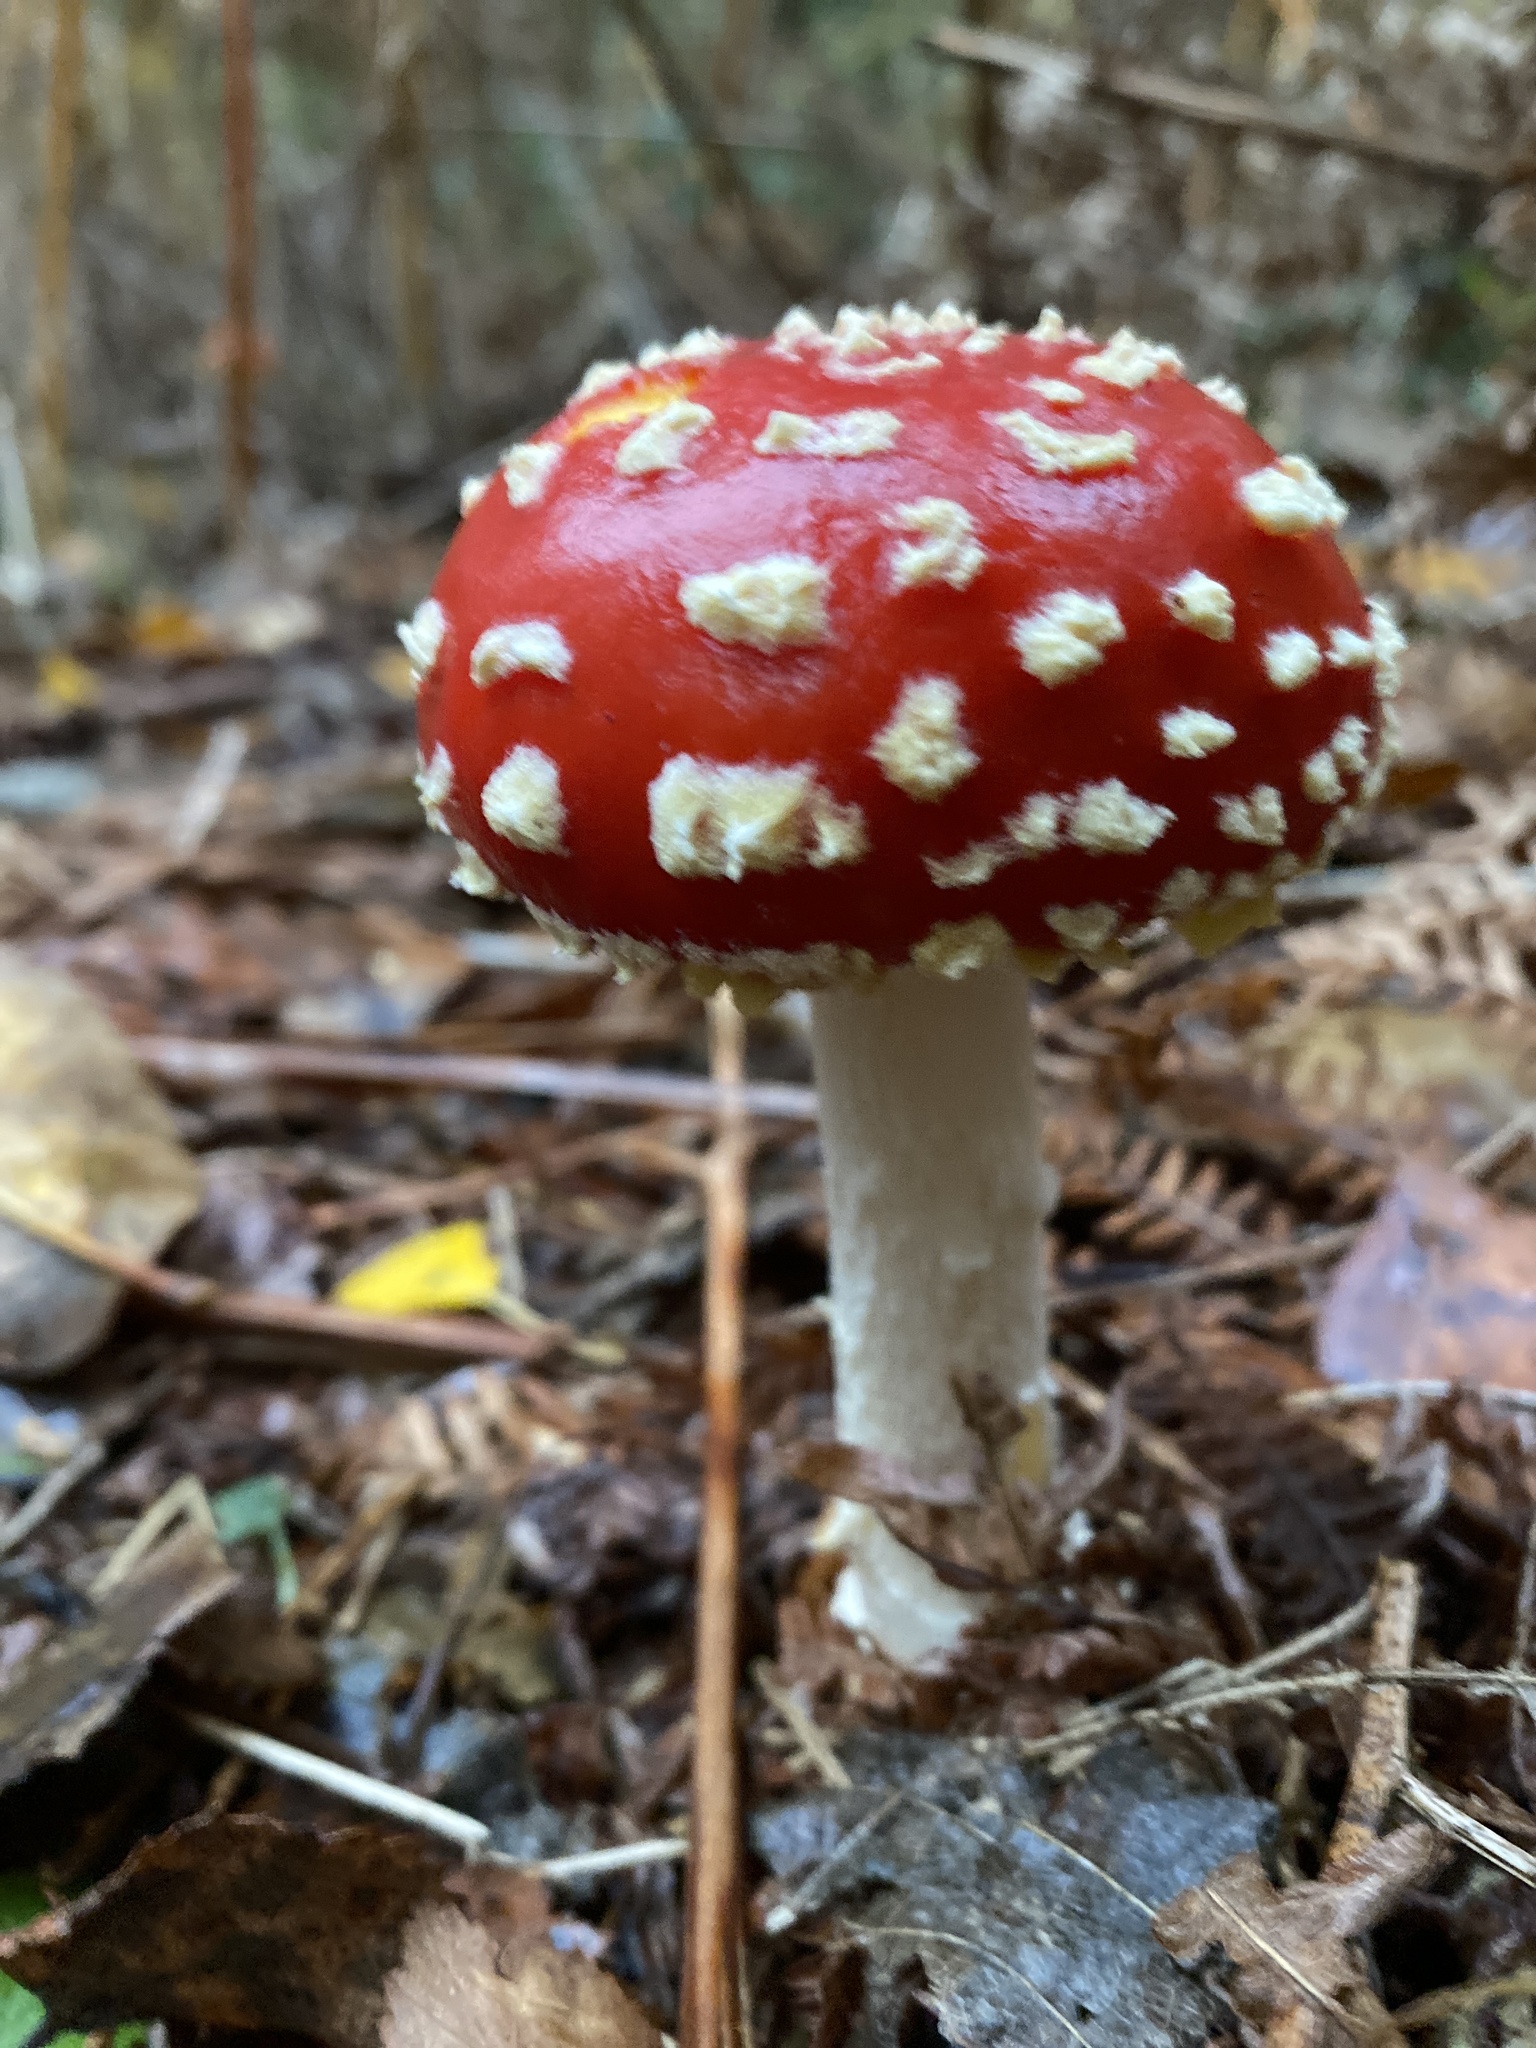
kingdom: Fungi
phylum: Basidiomycota
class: Agaricomycetes
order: Agaricales
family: Amanitaceae
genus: Amanita
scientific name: Amanita muscaria
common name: Fly agaric
